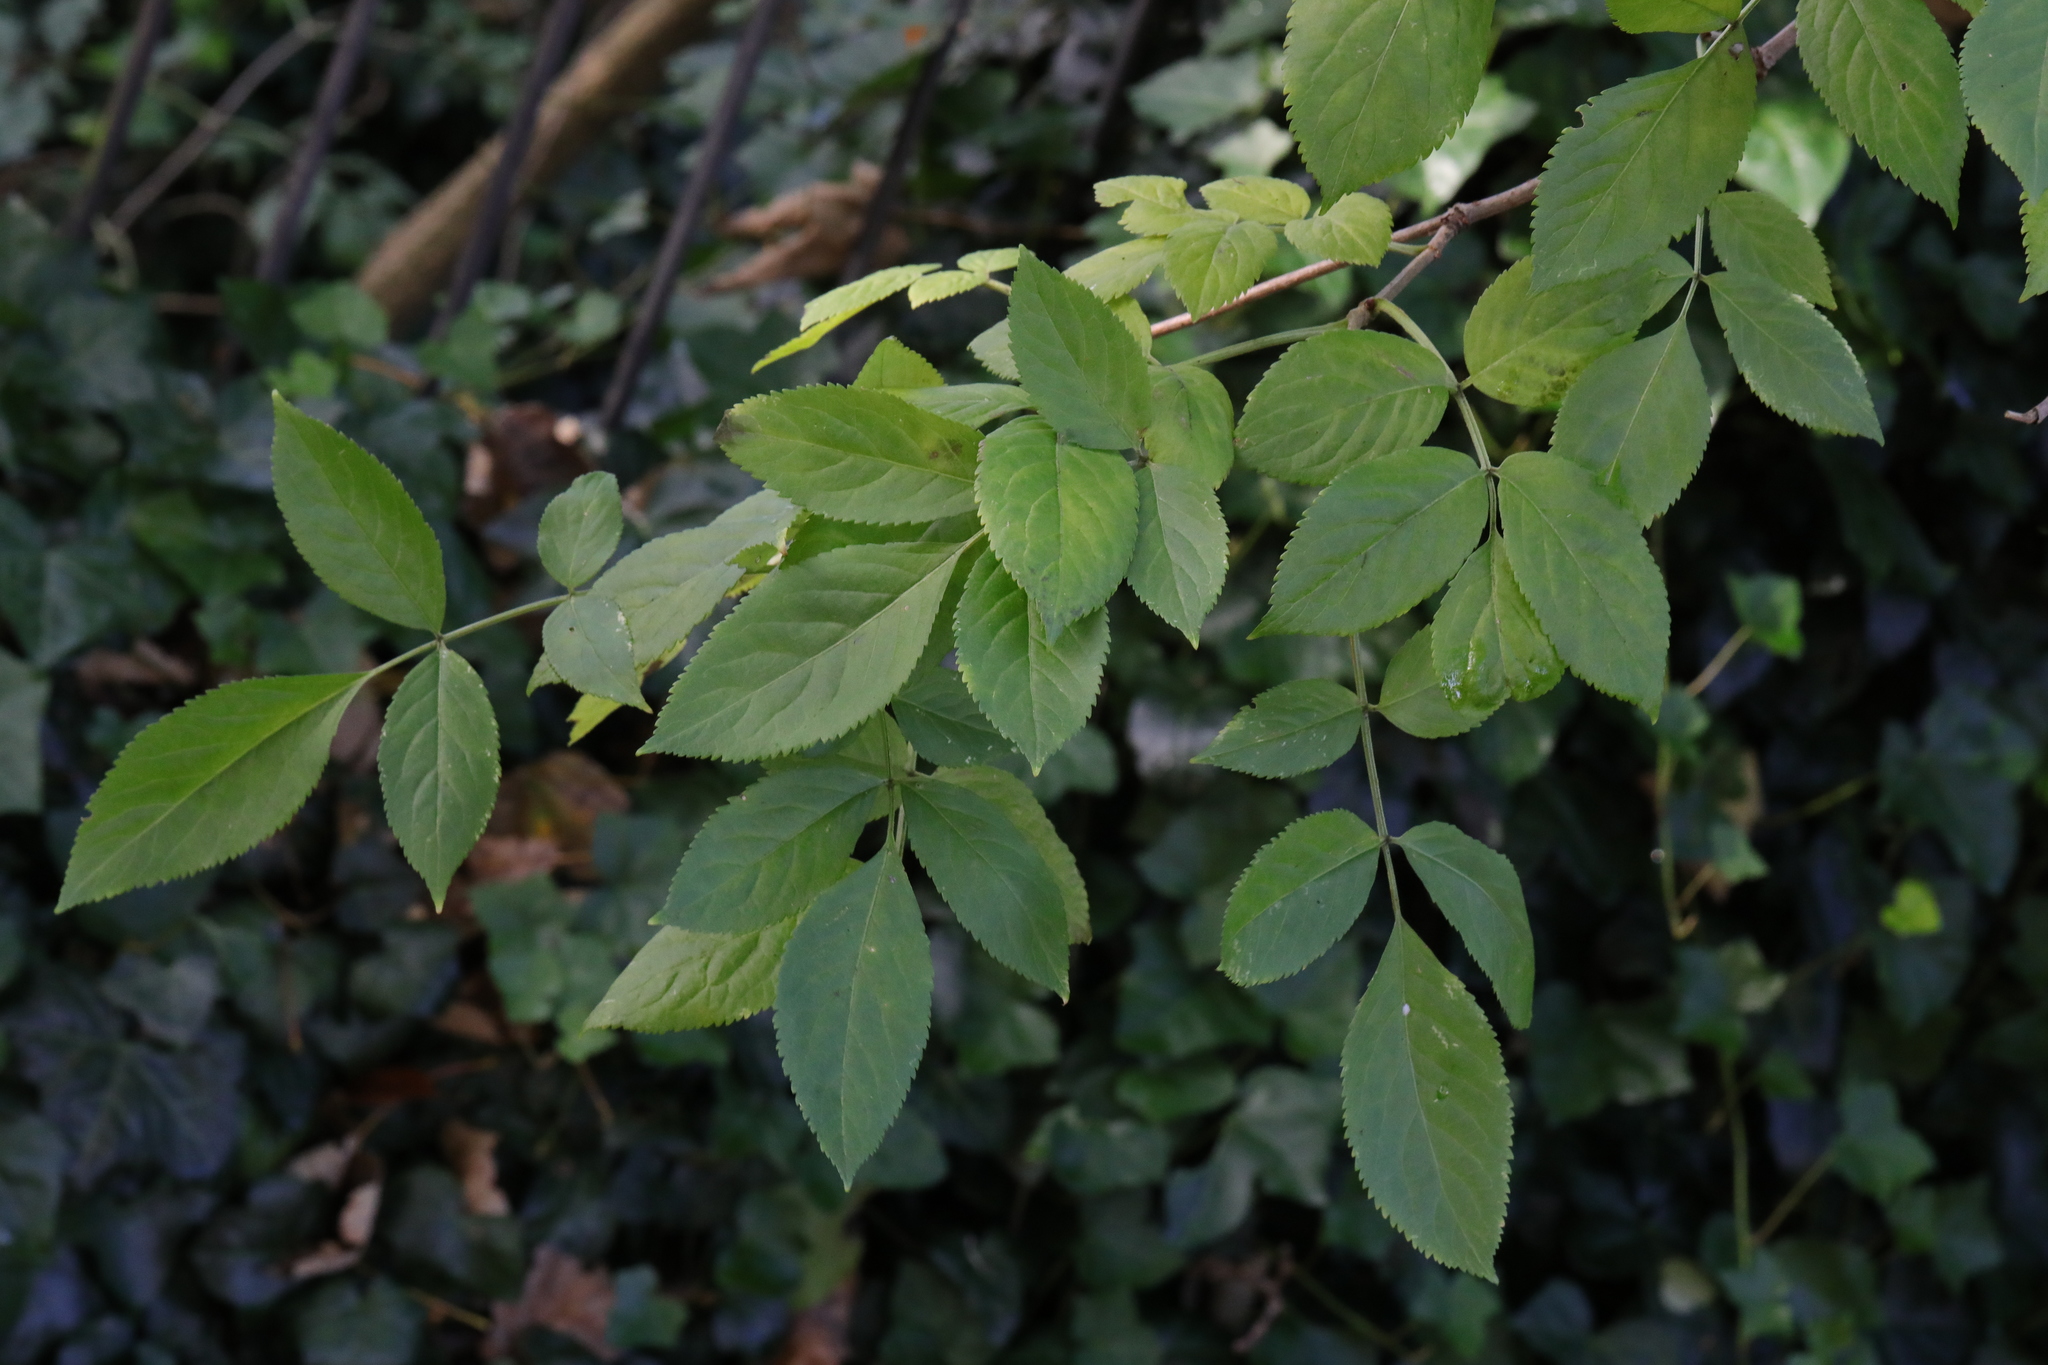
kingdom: Plantae
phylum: Tracheophyta
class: Magnoliopsida
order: Dipsacales
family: Viburnaceae
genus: Sambucus
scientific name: Sambucus nigra
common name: Elder
